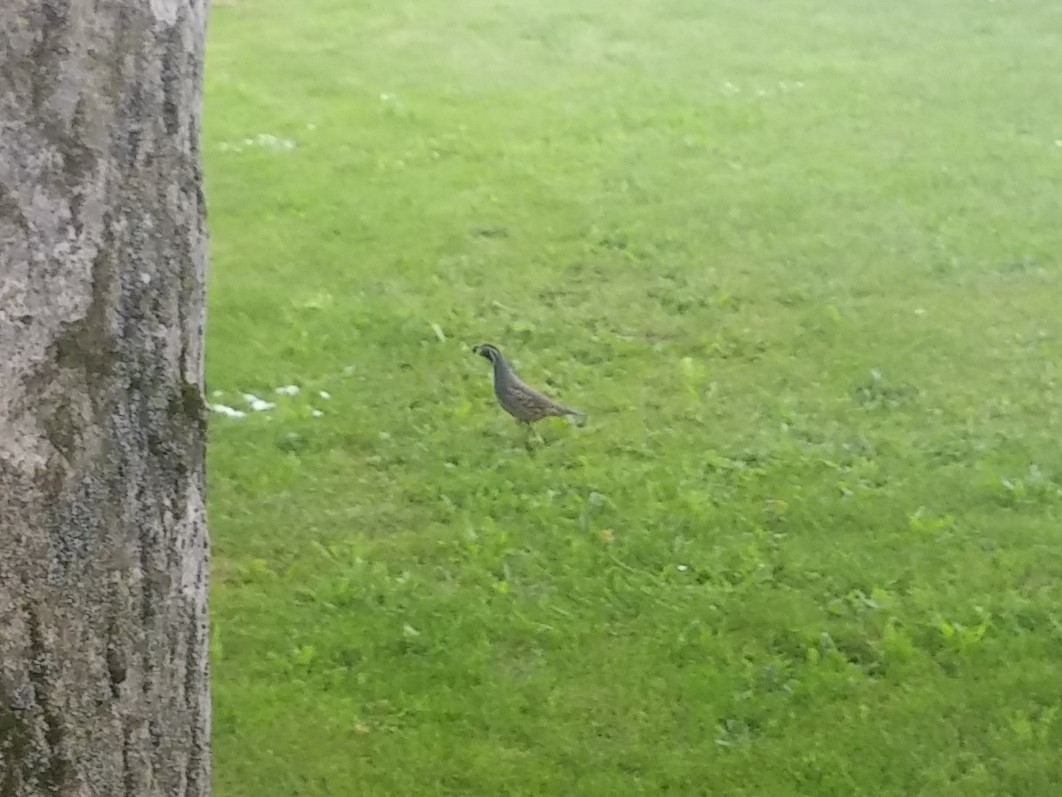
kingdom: Animalia
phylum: Chordata
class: Aves
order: Galliformes
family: Odontophoridae
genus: Callipepla
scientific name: Callipepla californica
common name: California quail
